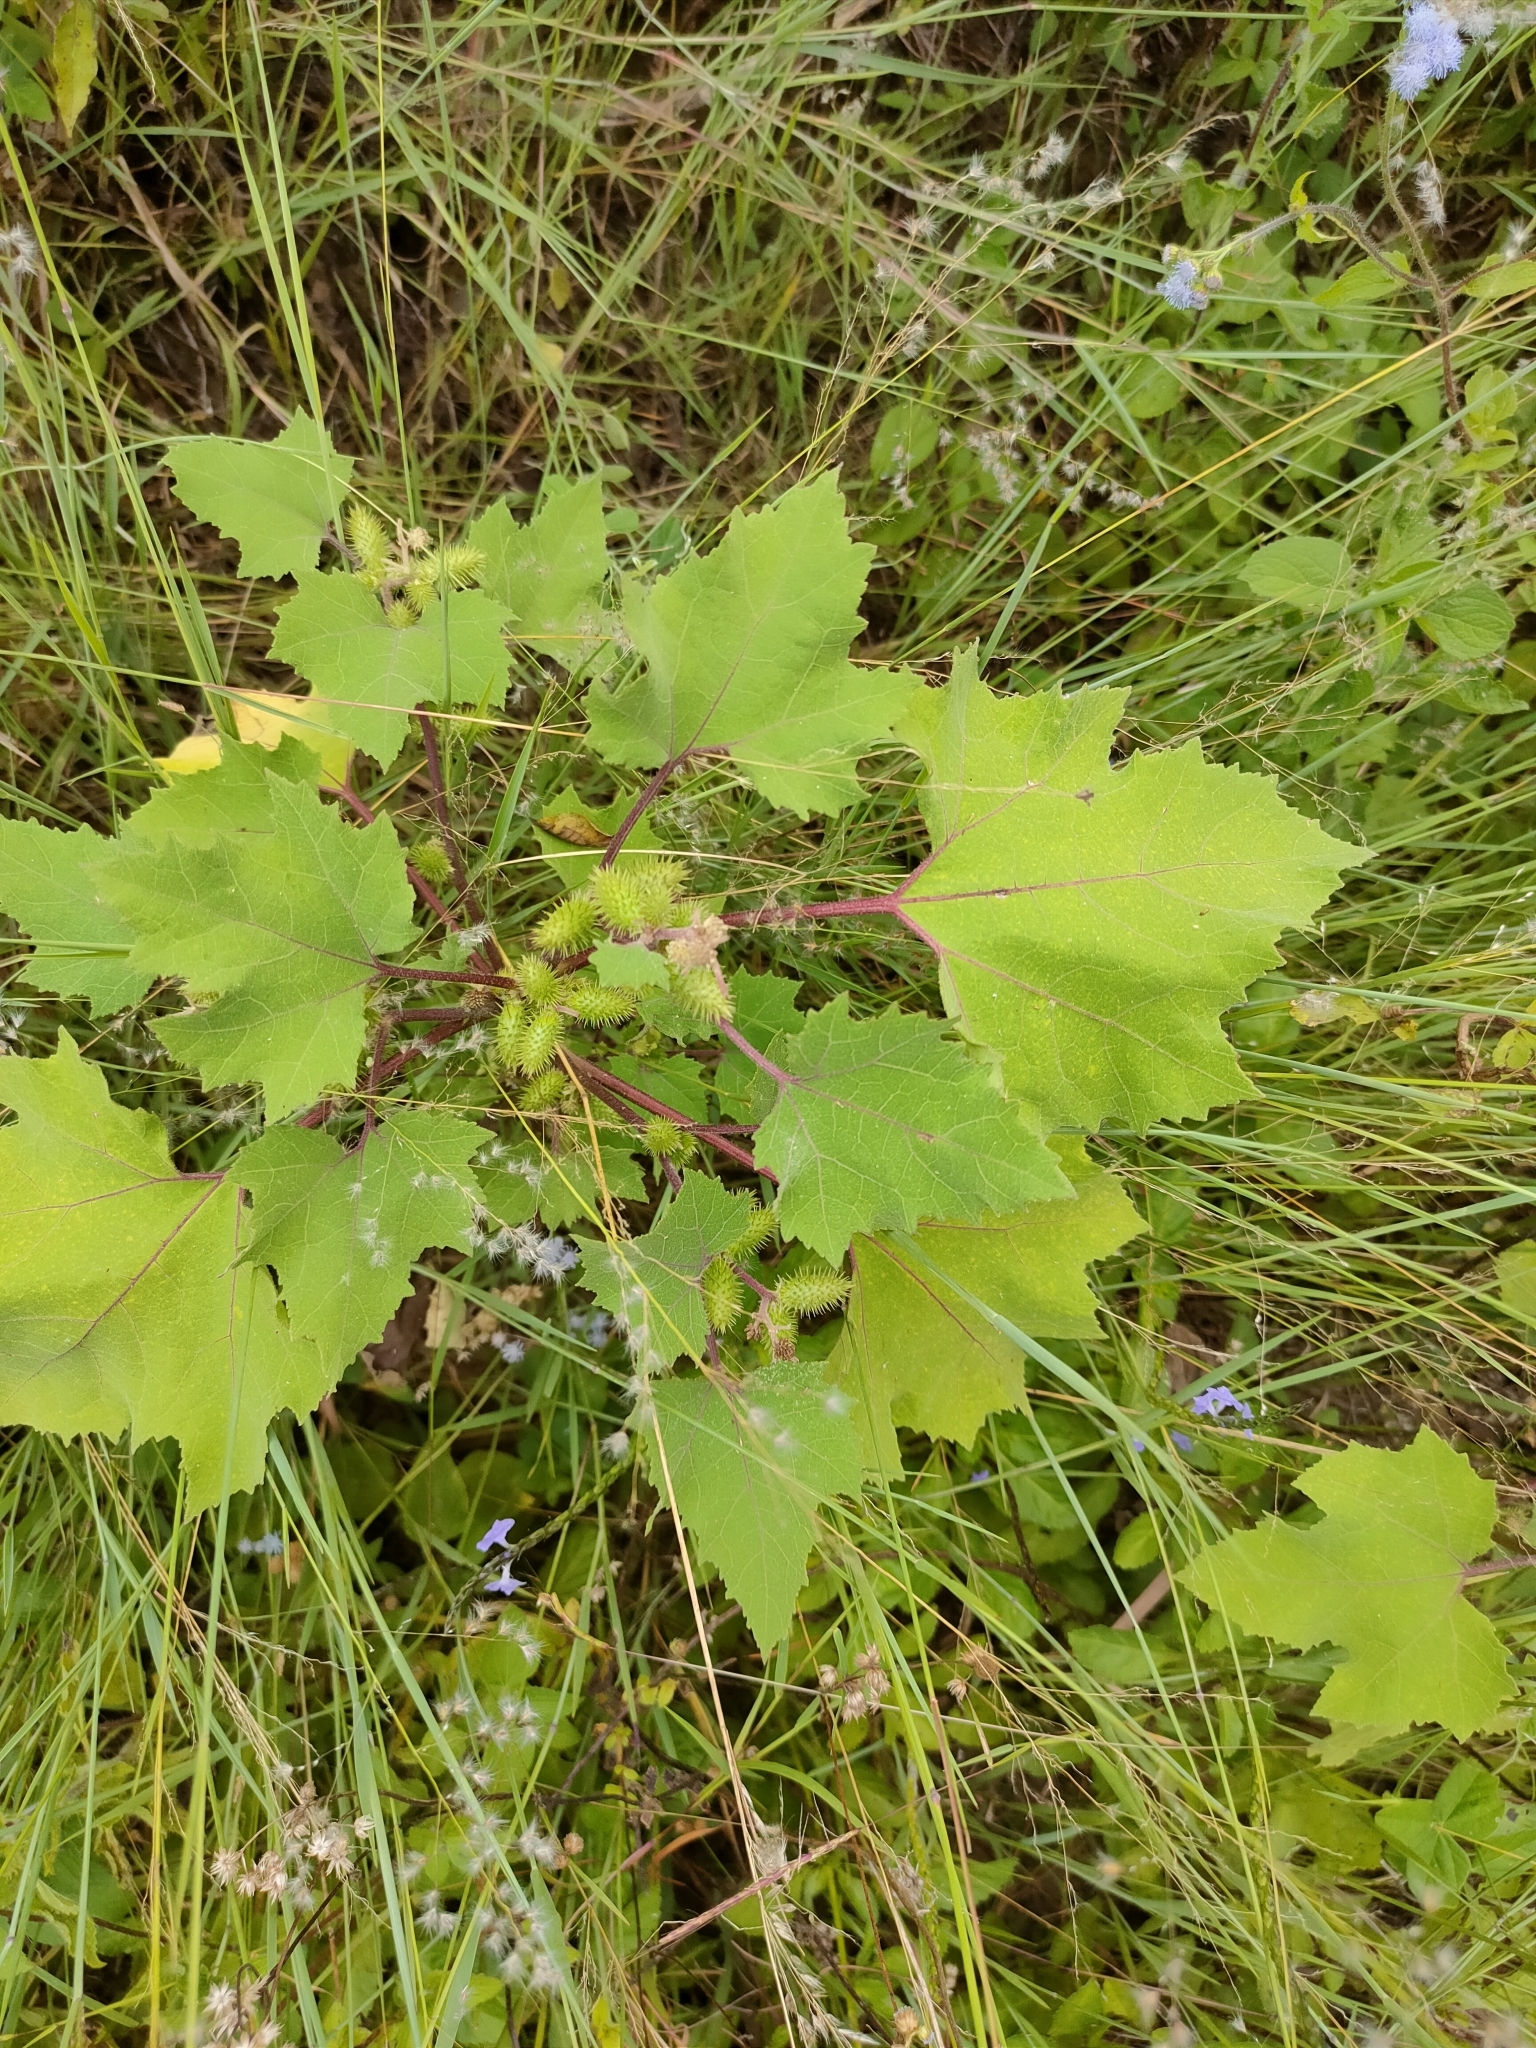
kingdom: Plantae
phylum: Tracheophyta
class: Magnoliopsida
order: Asterales
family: Asteraceae
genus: Xanthium
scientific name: Xanthium strumarium
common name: Rough cocklebur
